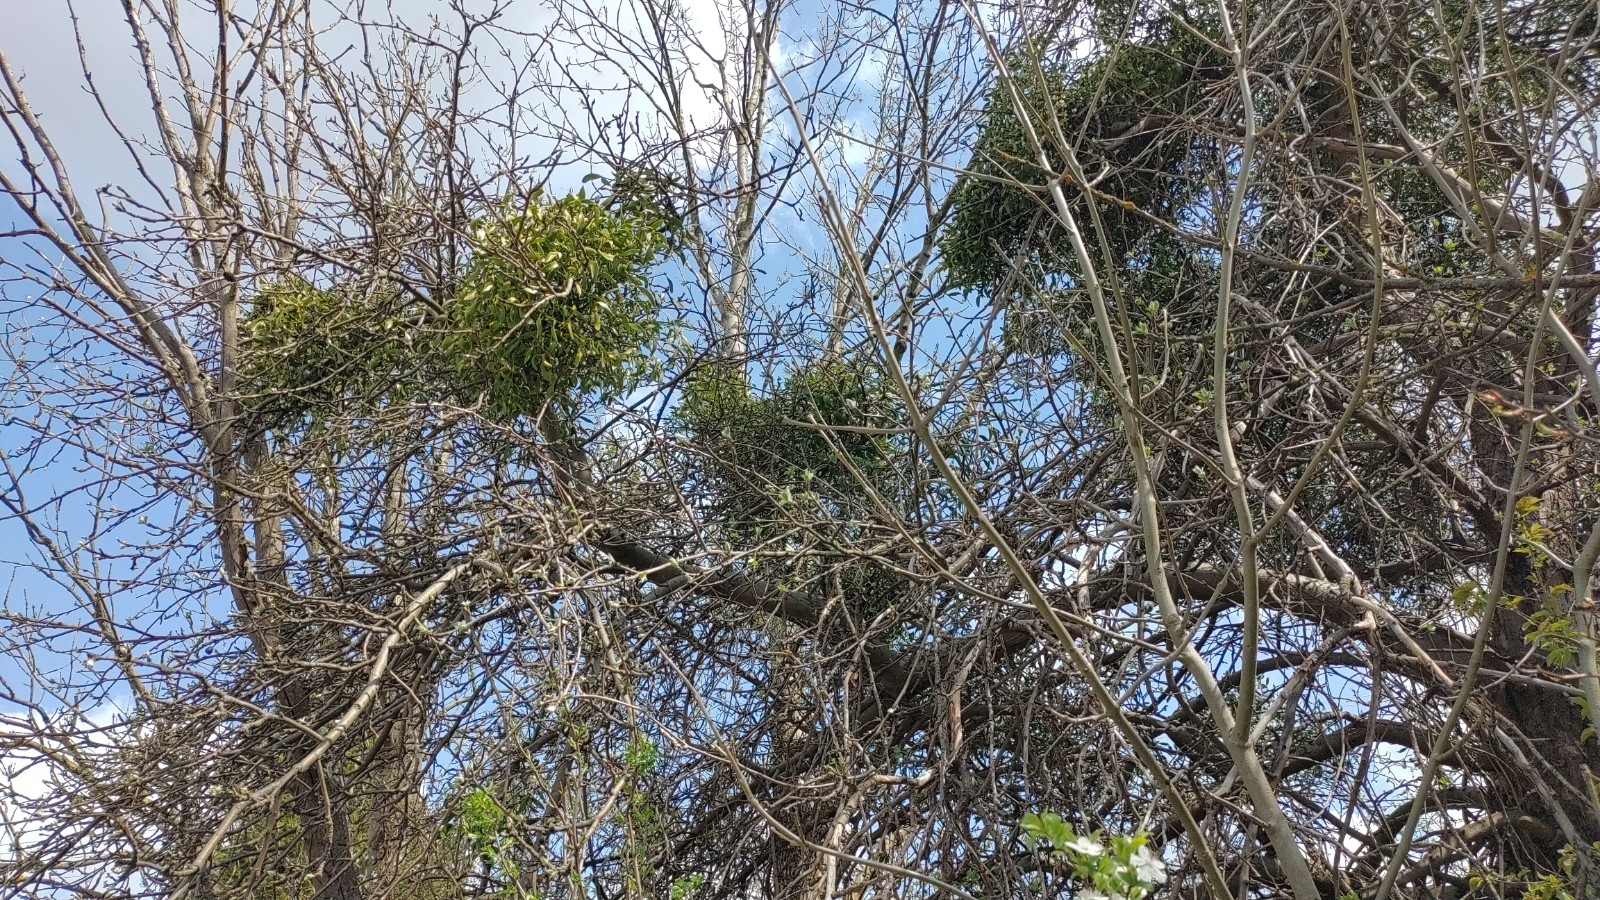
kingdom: Plantae
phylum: Tracheophyta
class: Magnoliopsida
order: Santalales
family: Viscaceae
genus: Viscum
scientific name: Viscum album
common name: Mistletoe
